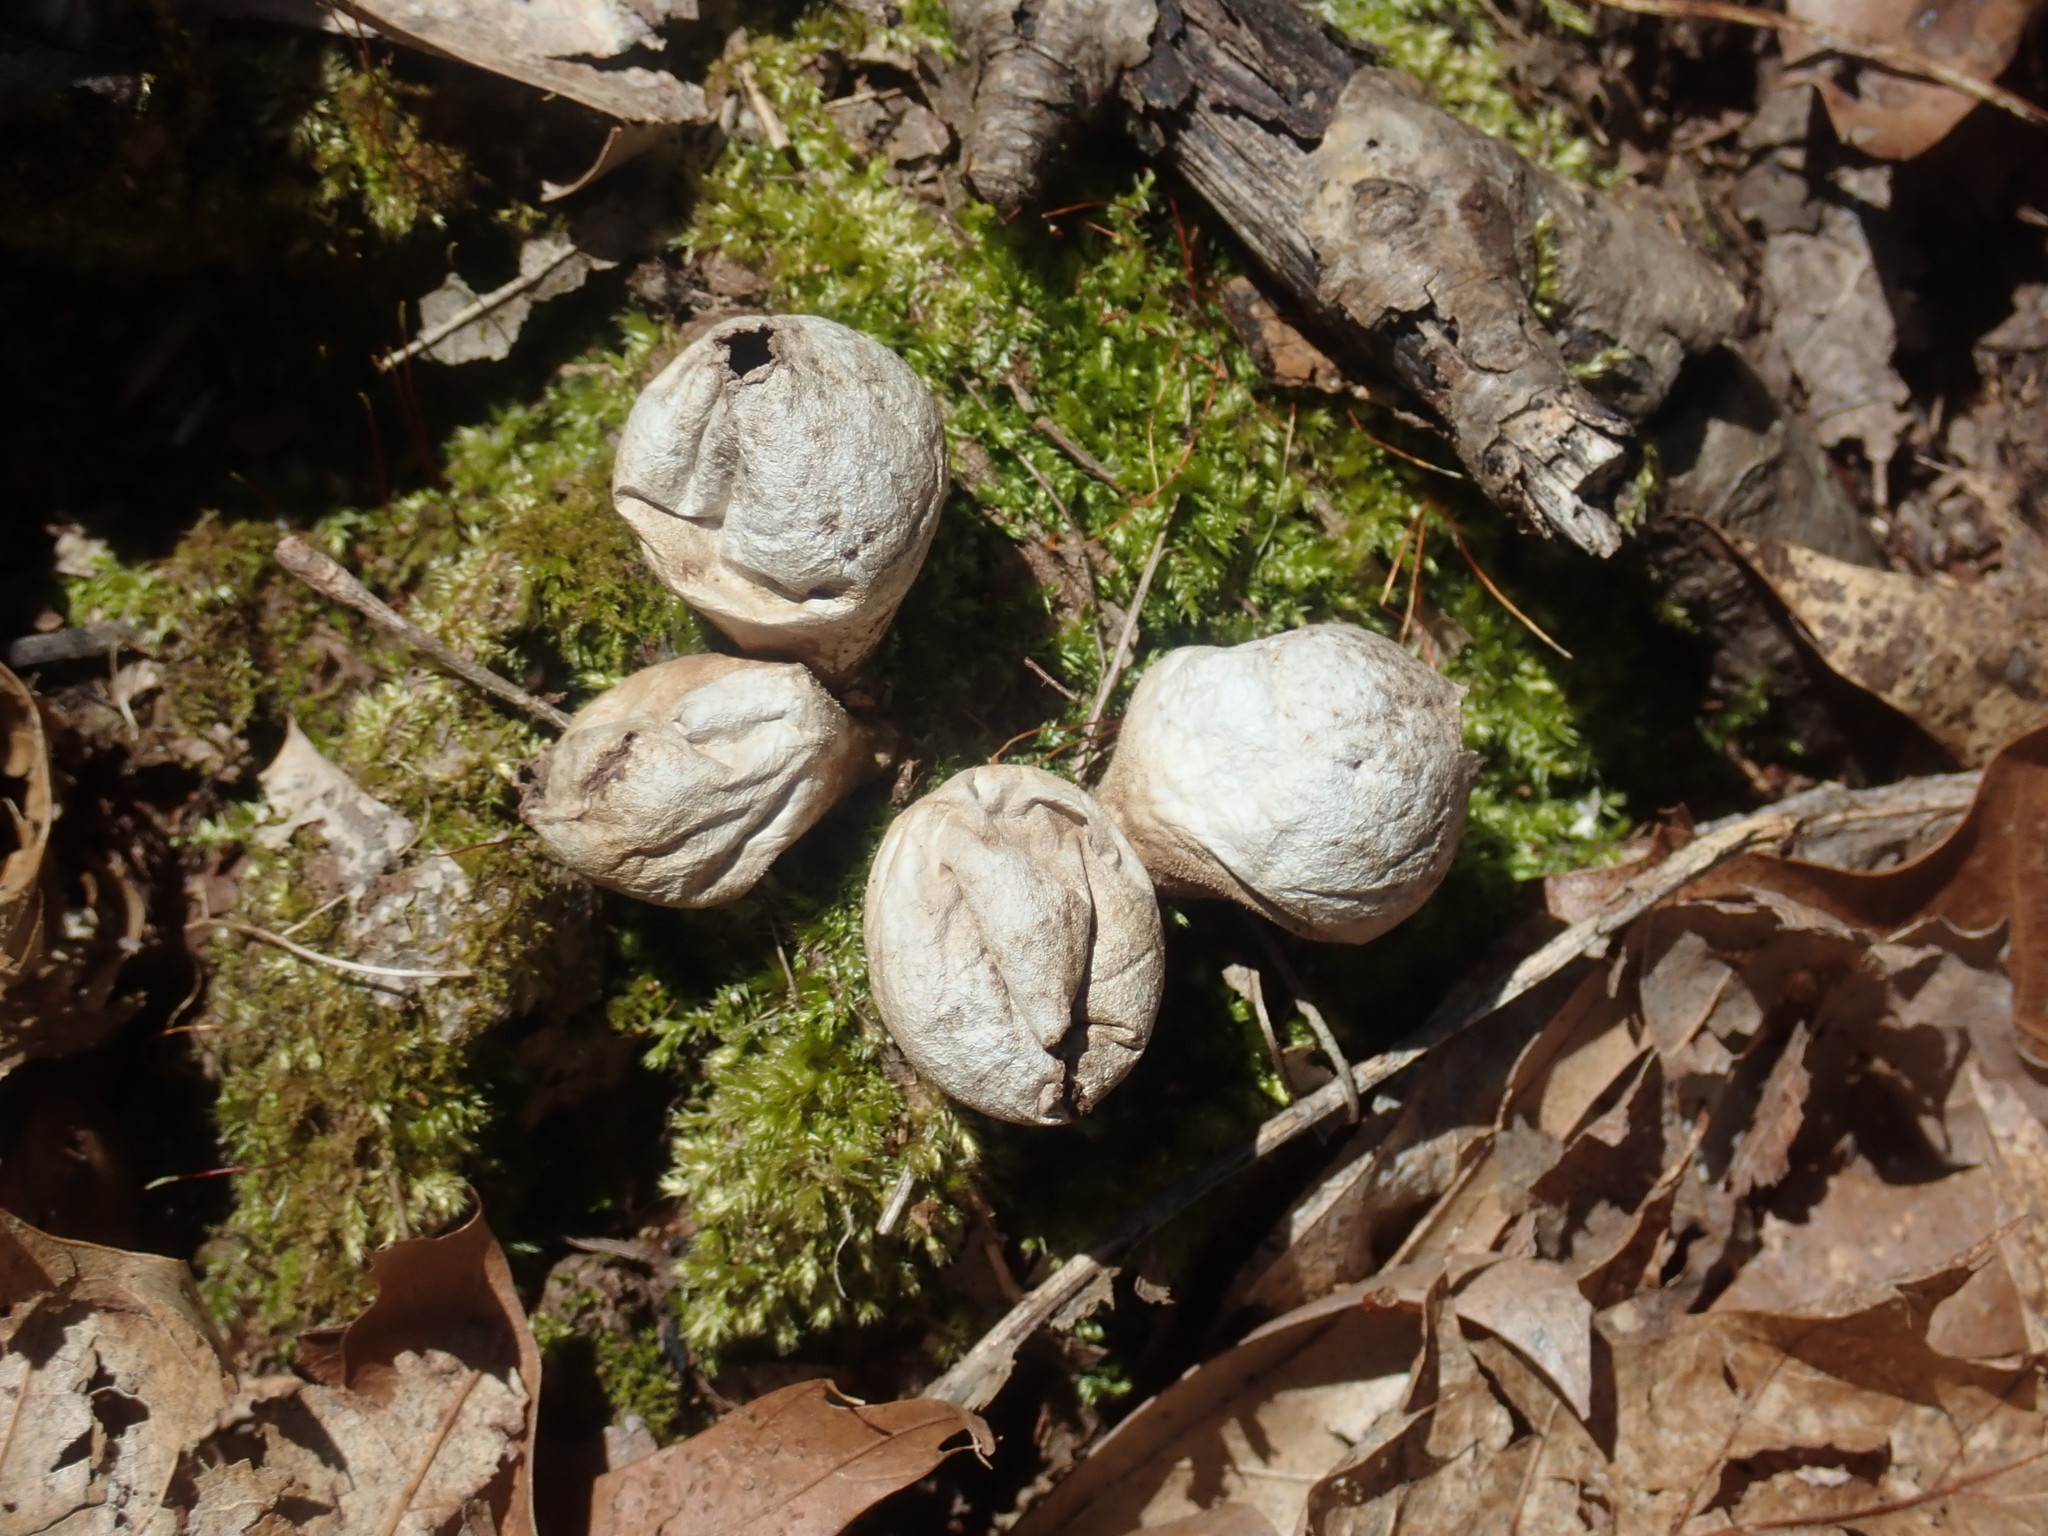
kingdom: Fungi
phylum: Basidiomycota
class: Agaricomycetes
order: Agaricales
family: Lycoperdaceae
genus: Apioperdon
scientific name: Apioperdon pyriforme
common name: Pear-shaped puffball
